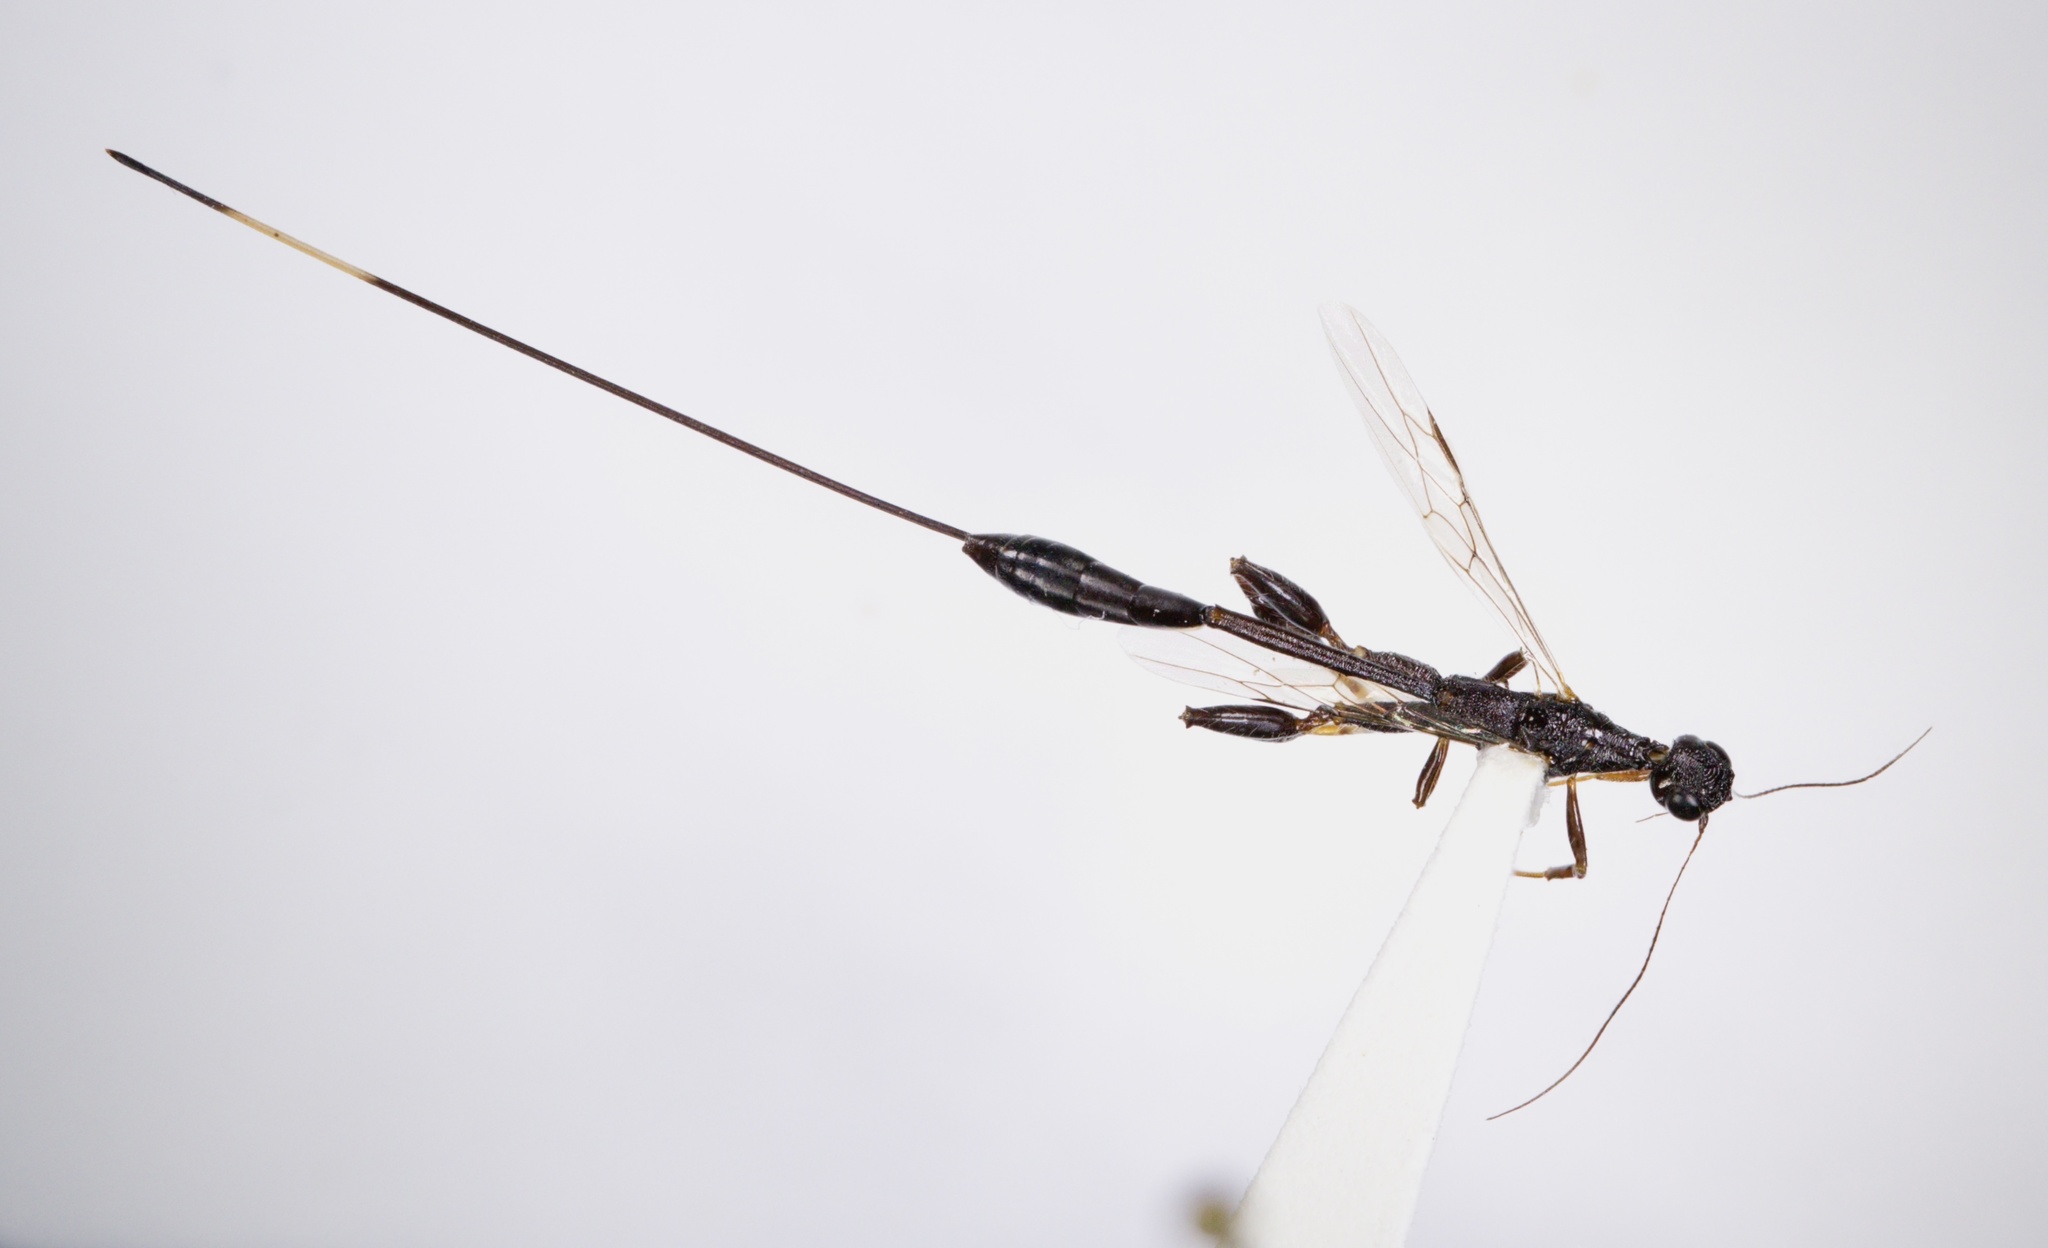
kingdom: Animalia
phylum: Arthropoda
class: Insecta
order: Hymenoptera
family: Stephanidae
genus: Megischus
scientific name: Megischus
